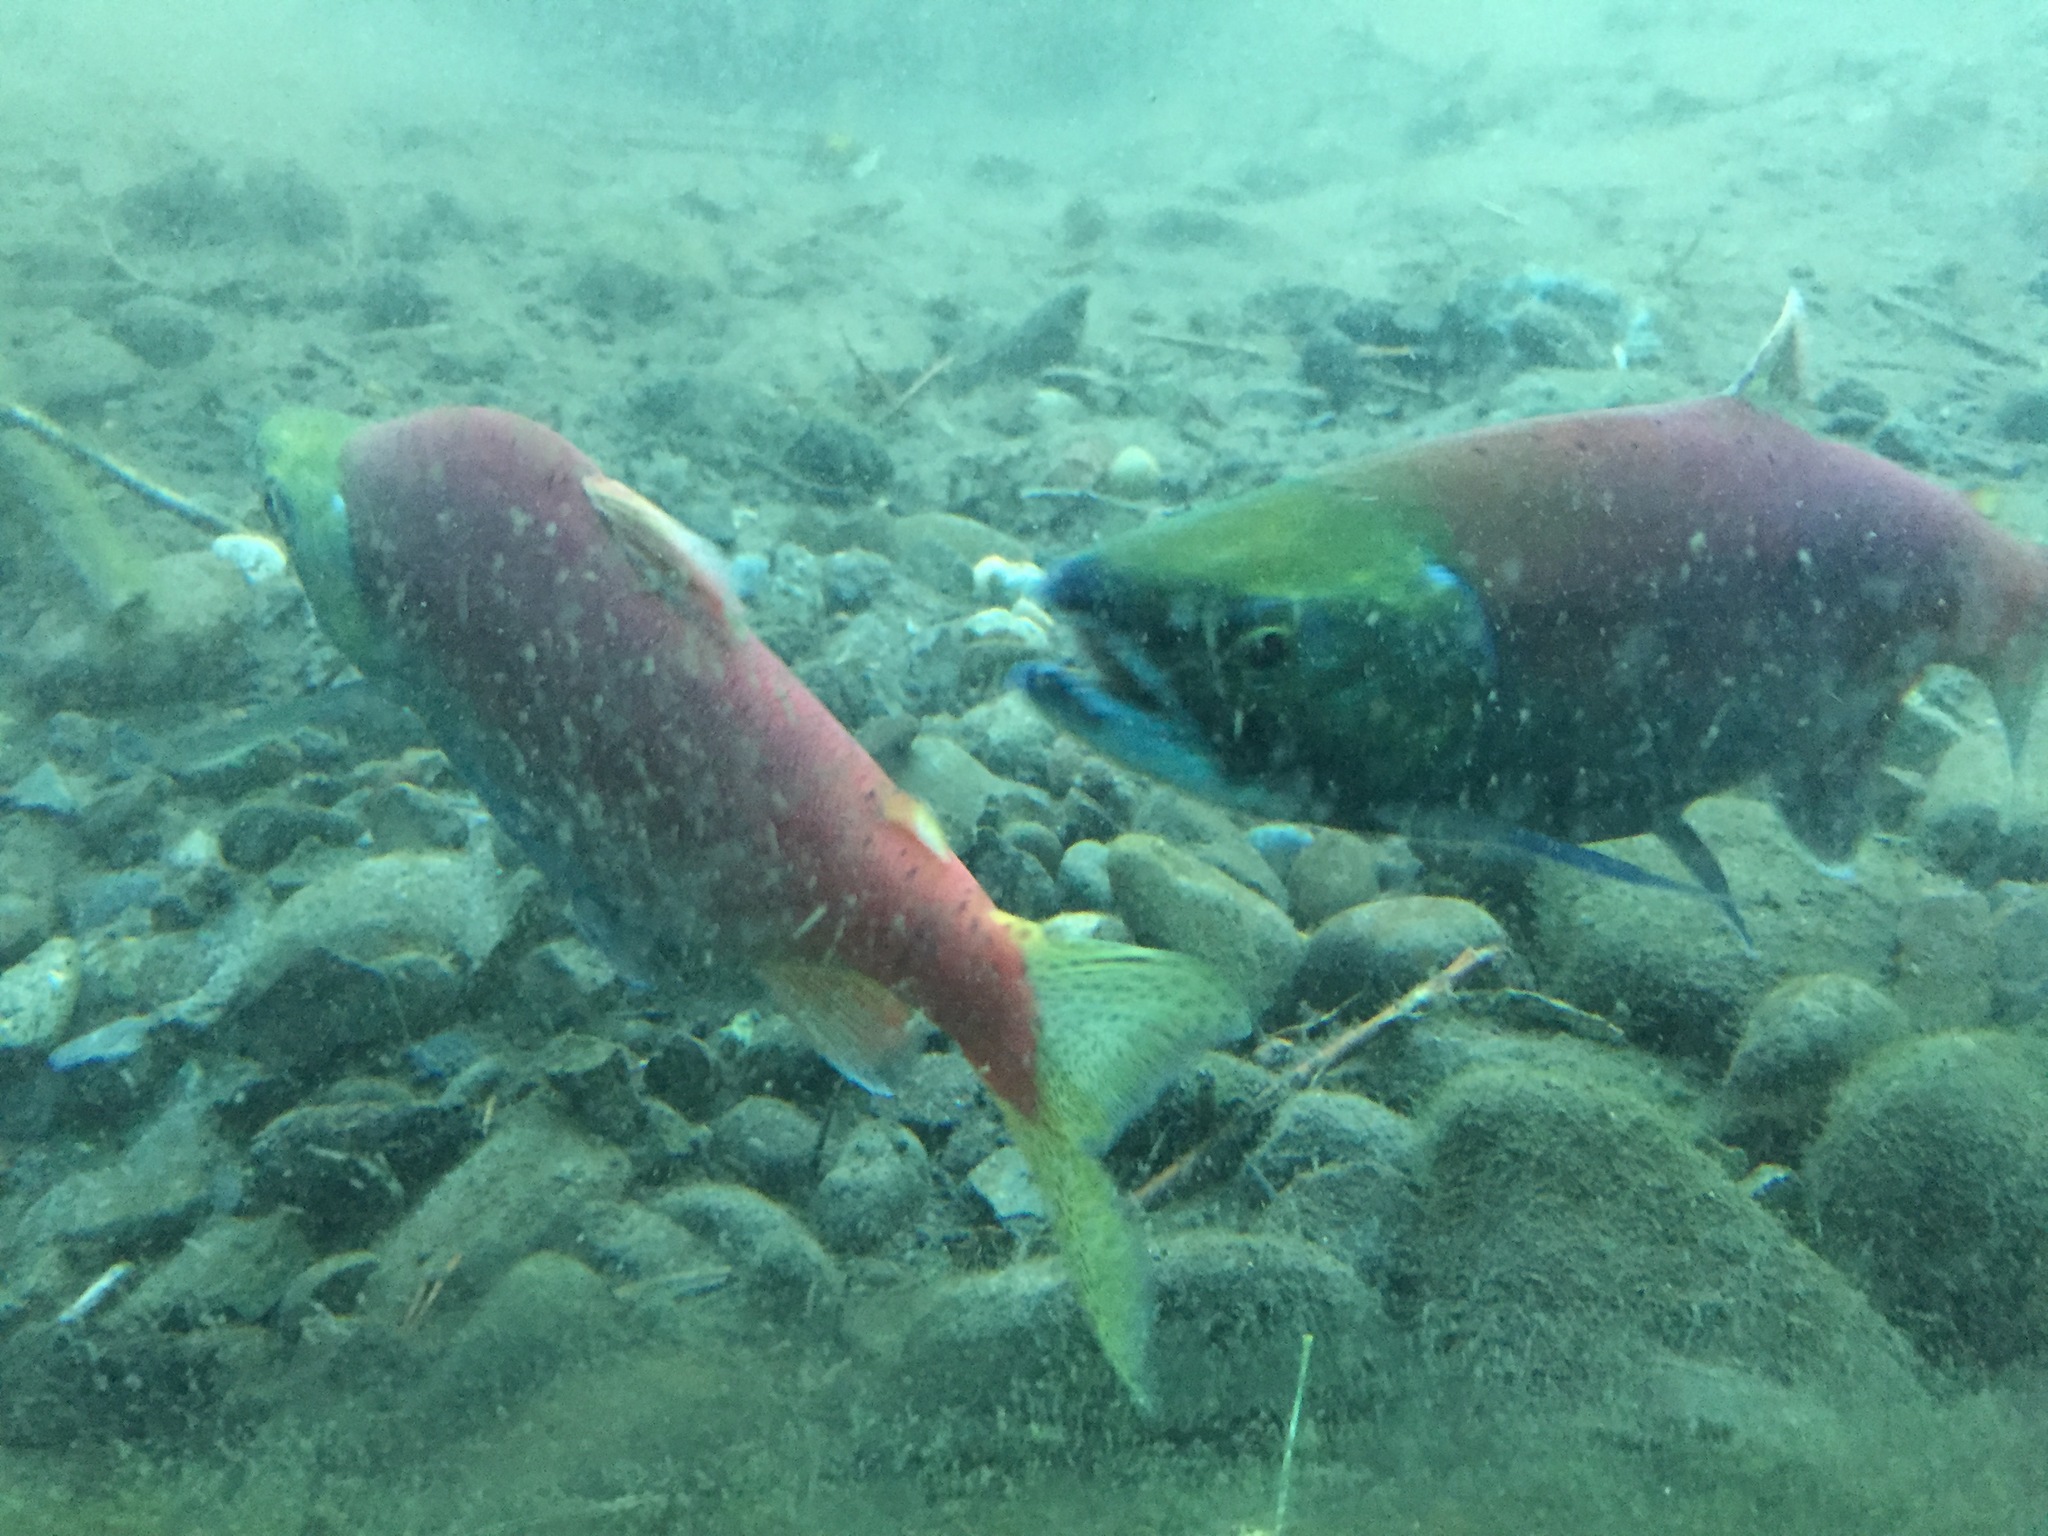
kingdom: Animalia
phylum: Chordata
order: Salmoniformes
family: Salmonidae
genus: Oncorhynchus
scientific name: Oncorhynchus nerka
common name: Sockeye salmon
